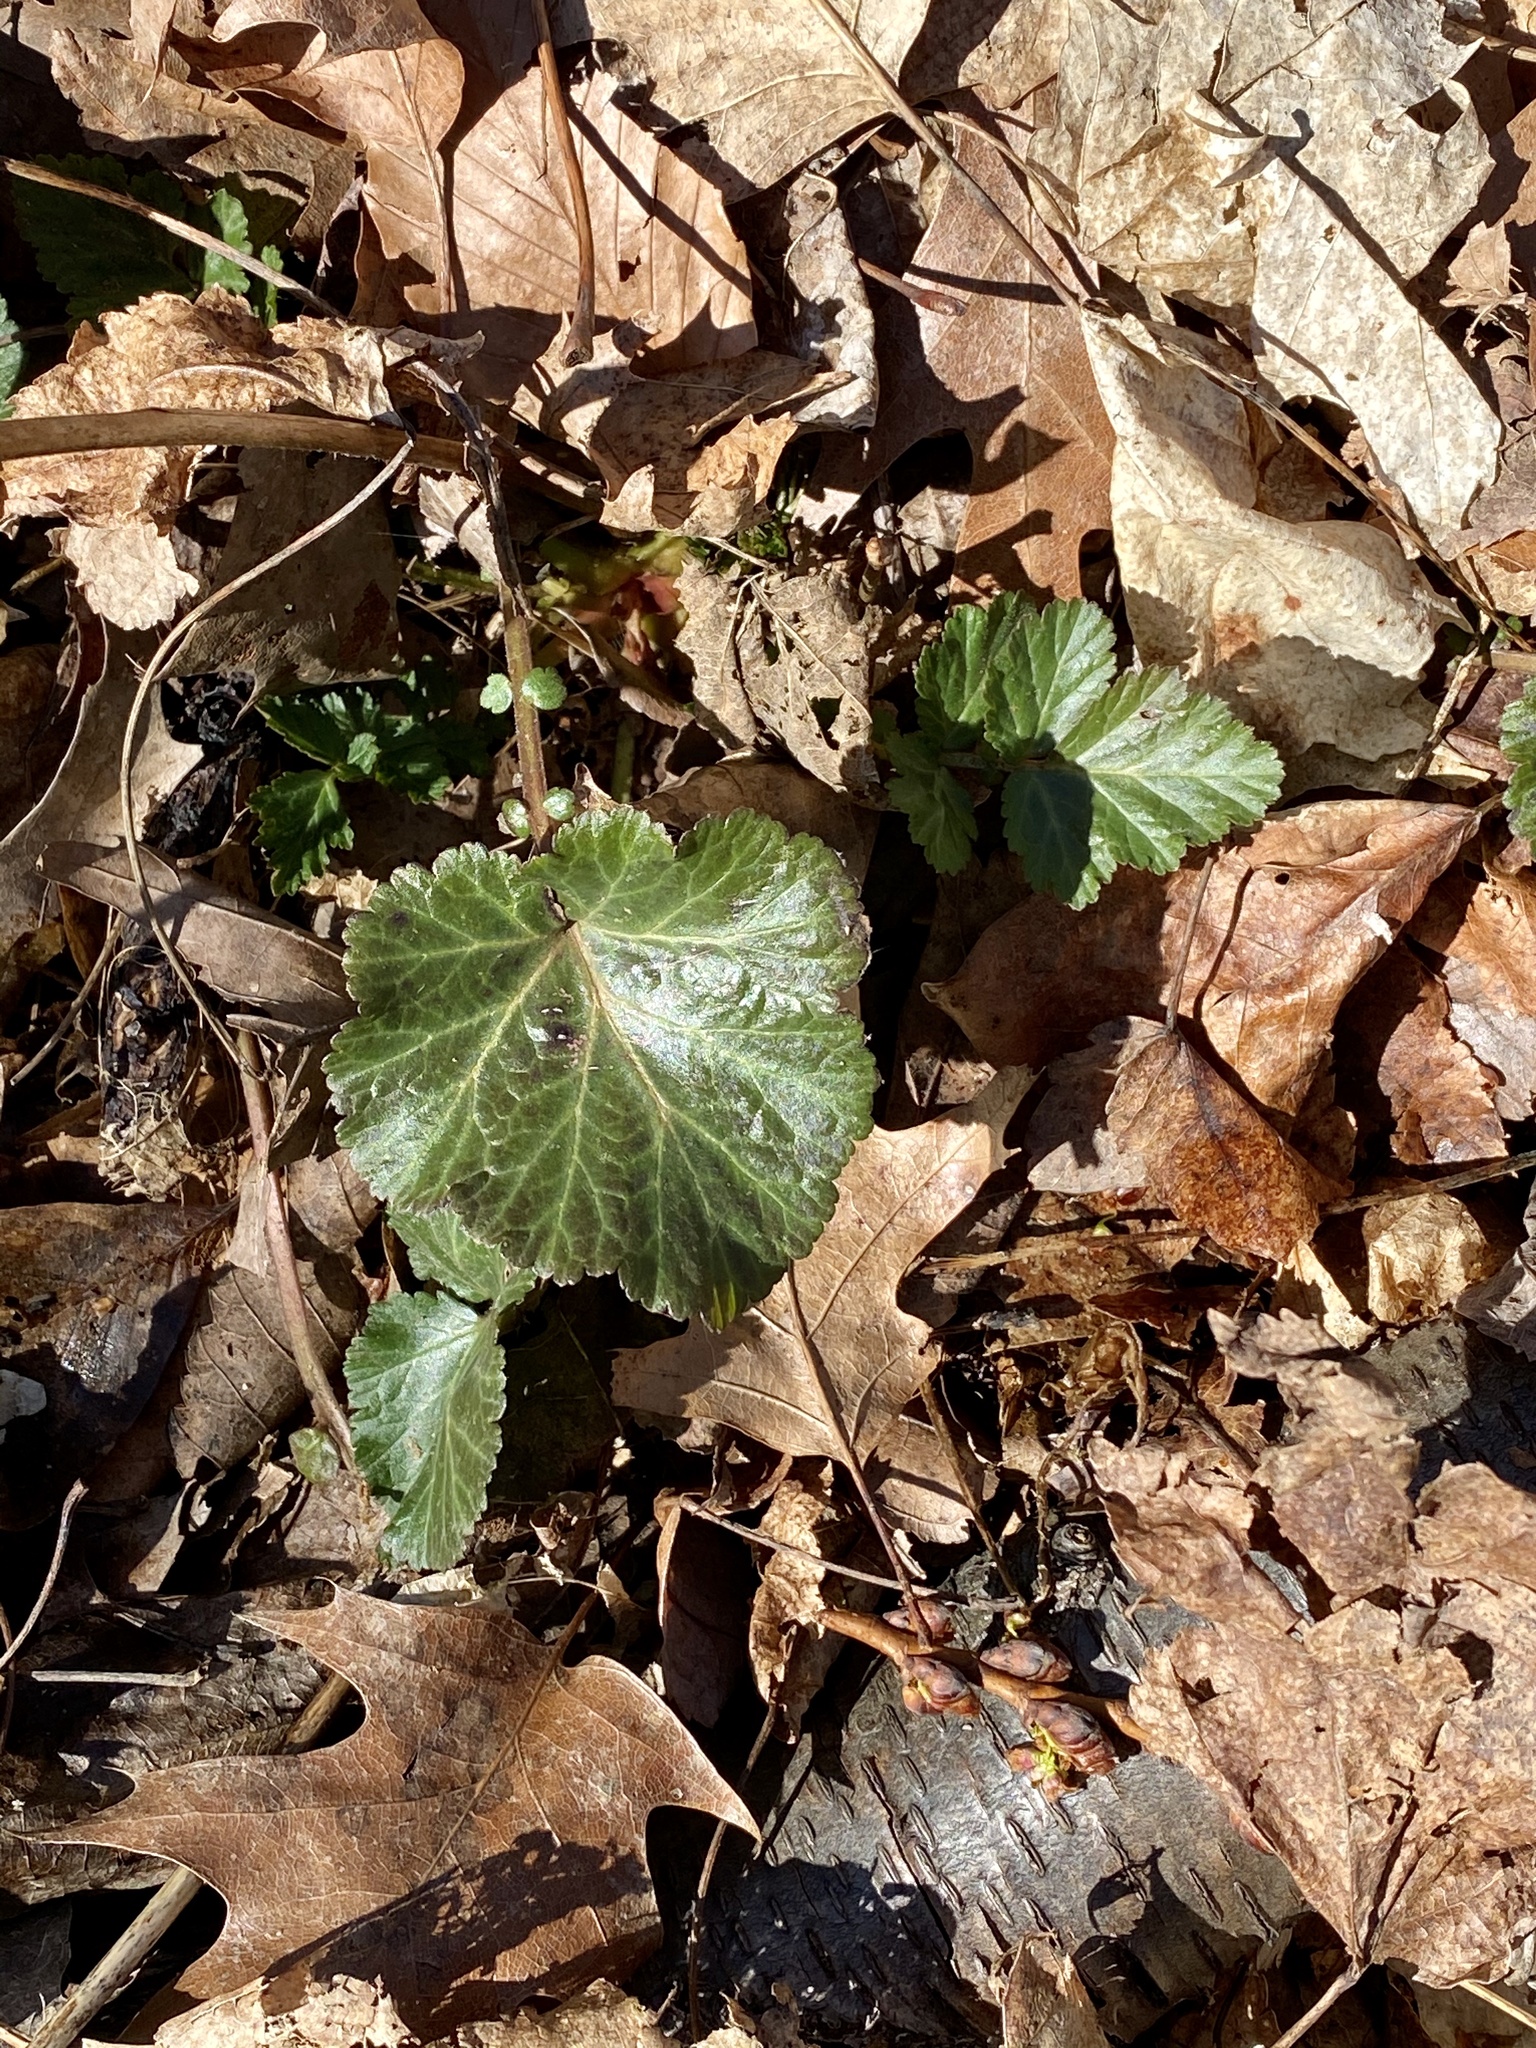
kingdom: Plantae
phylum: Tracheophyta
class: Magnoliopsida
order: Rosales
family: Rosaceae
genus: Geum
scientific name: Geum canadense
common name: White avens
